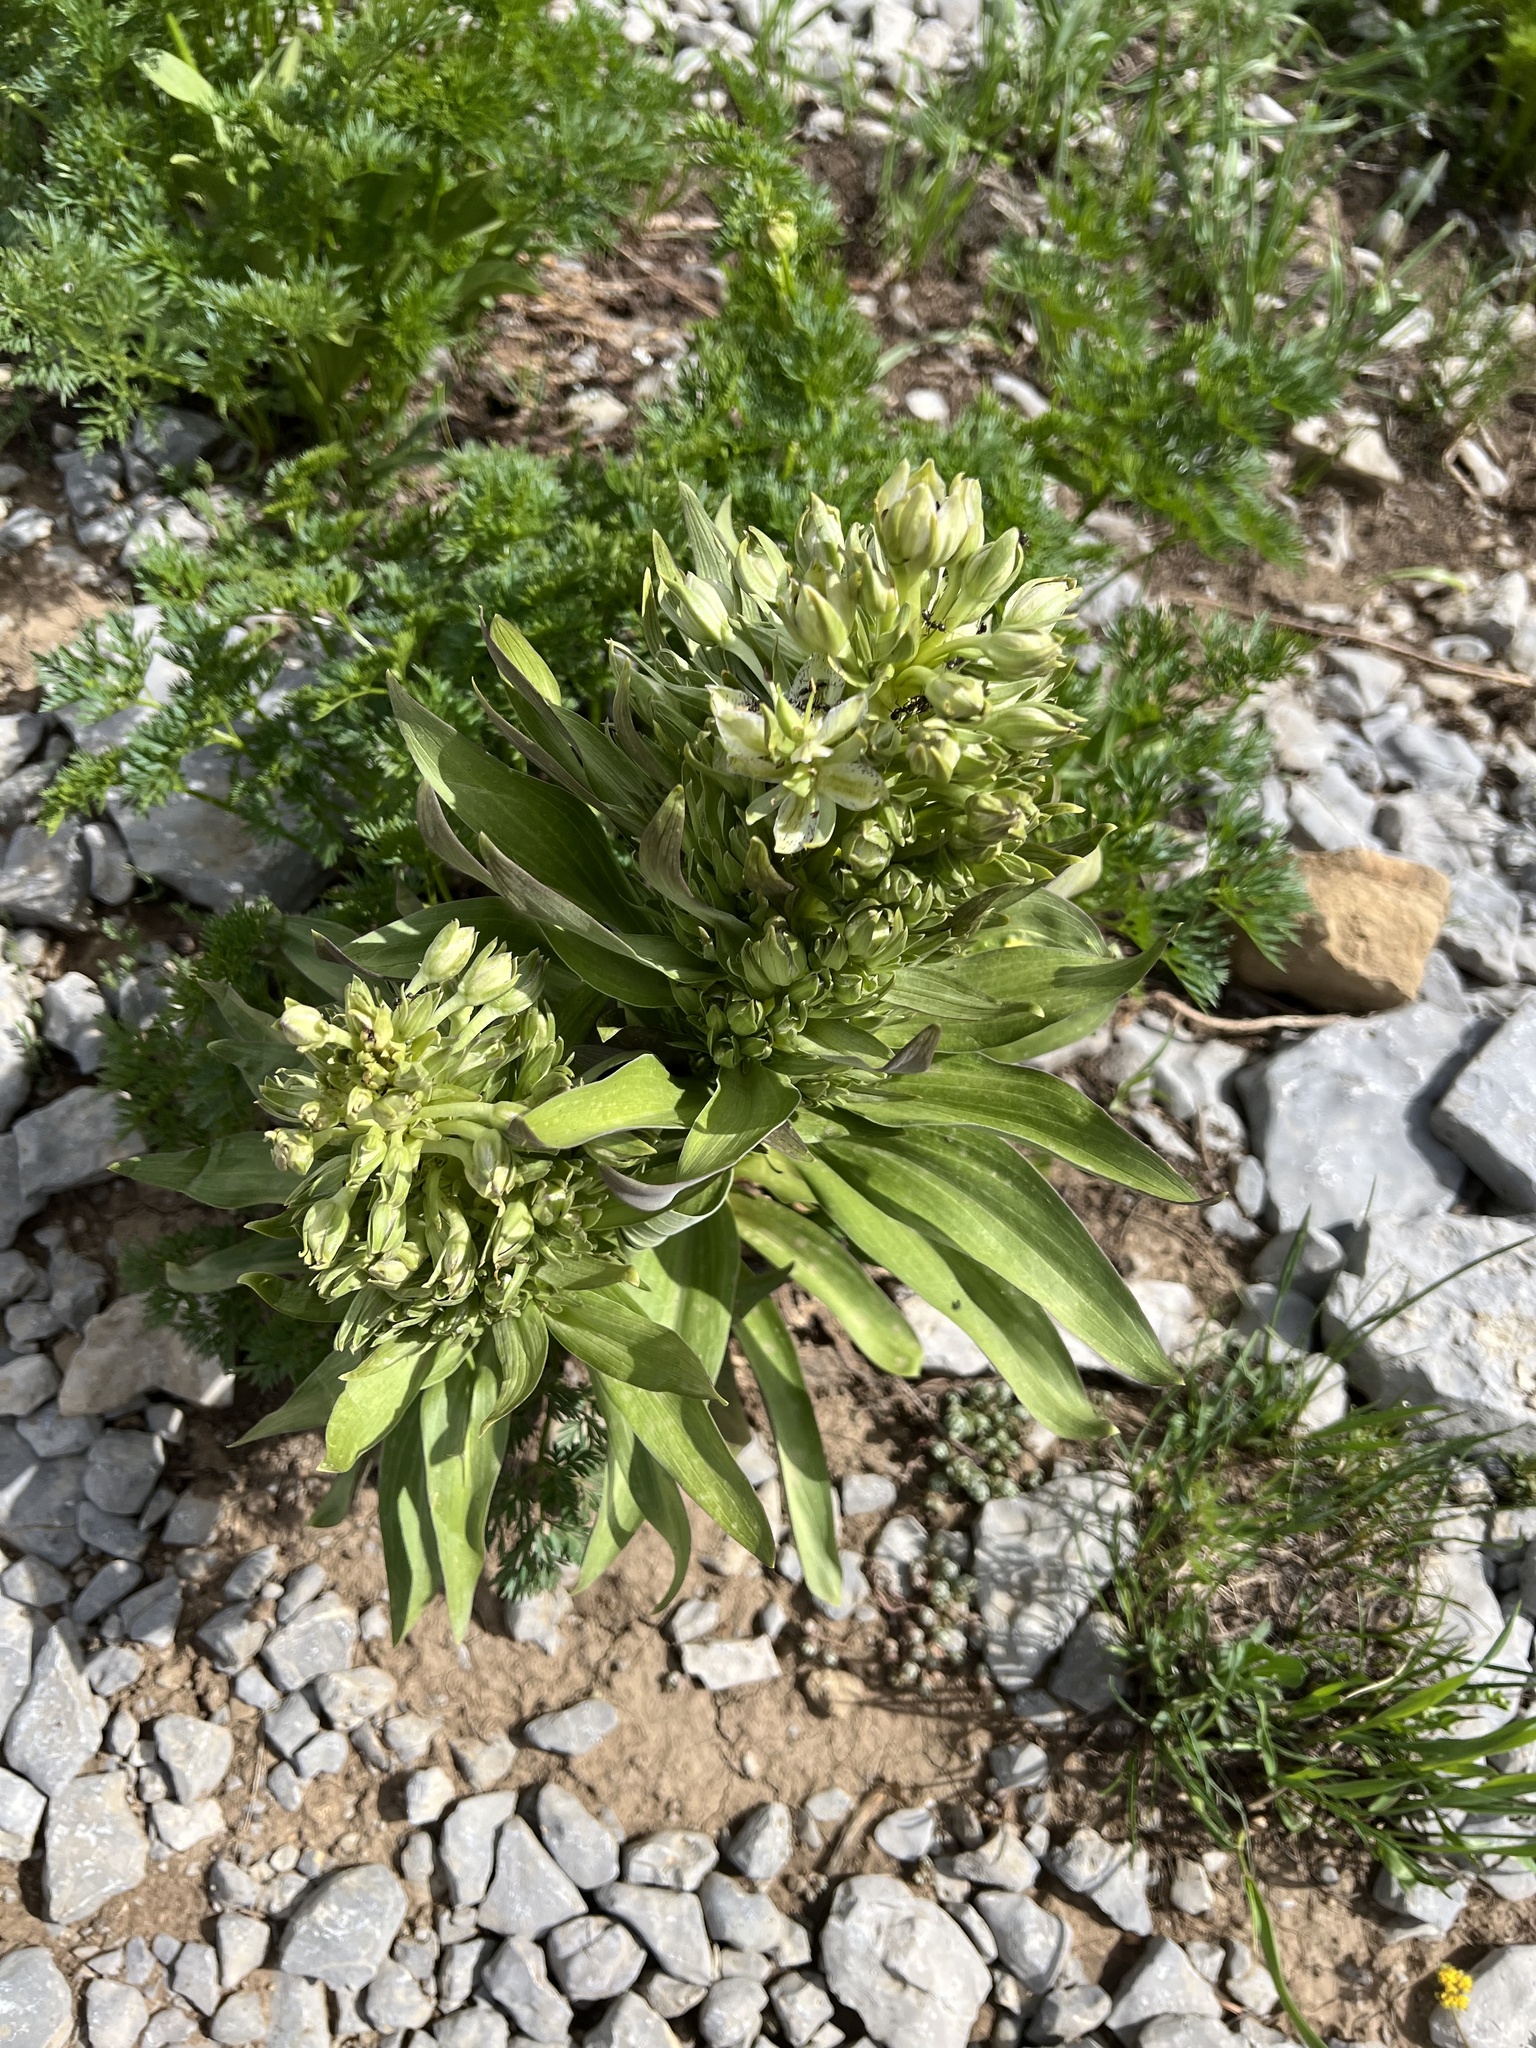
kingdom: Plantae
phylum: Tracheophyta
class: Magnoliopsida
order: Gentianales
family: Gentianaceae
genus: Frasera
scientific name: Frasera speciosa
